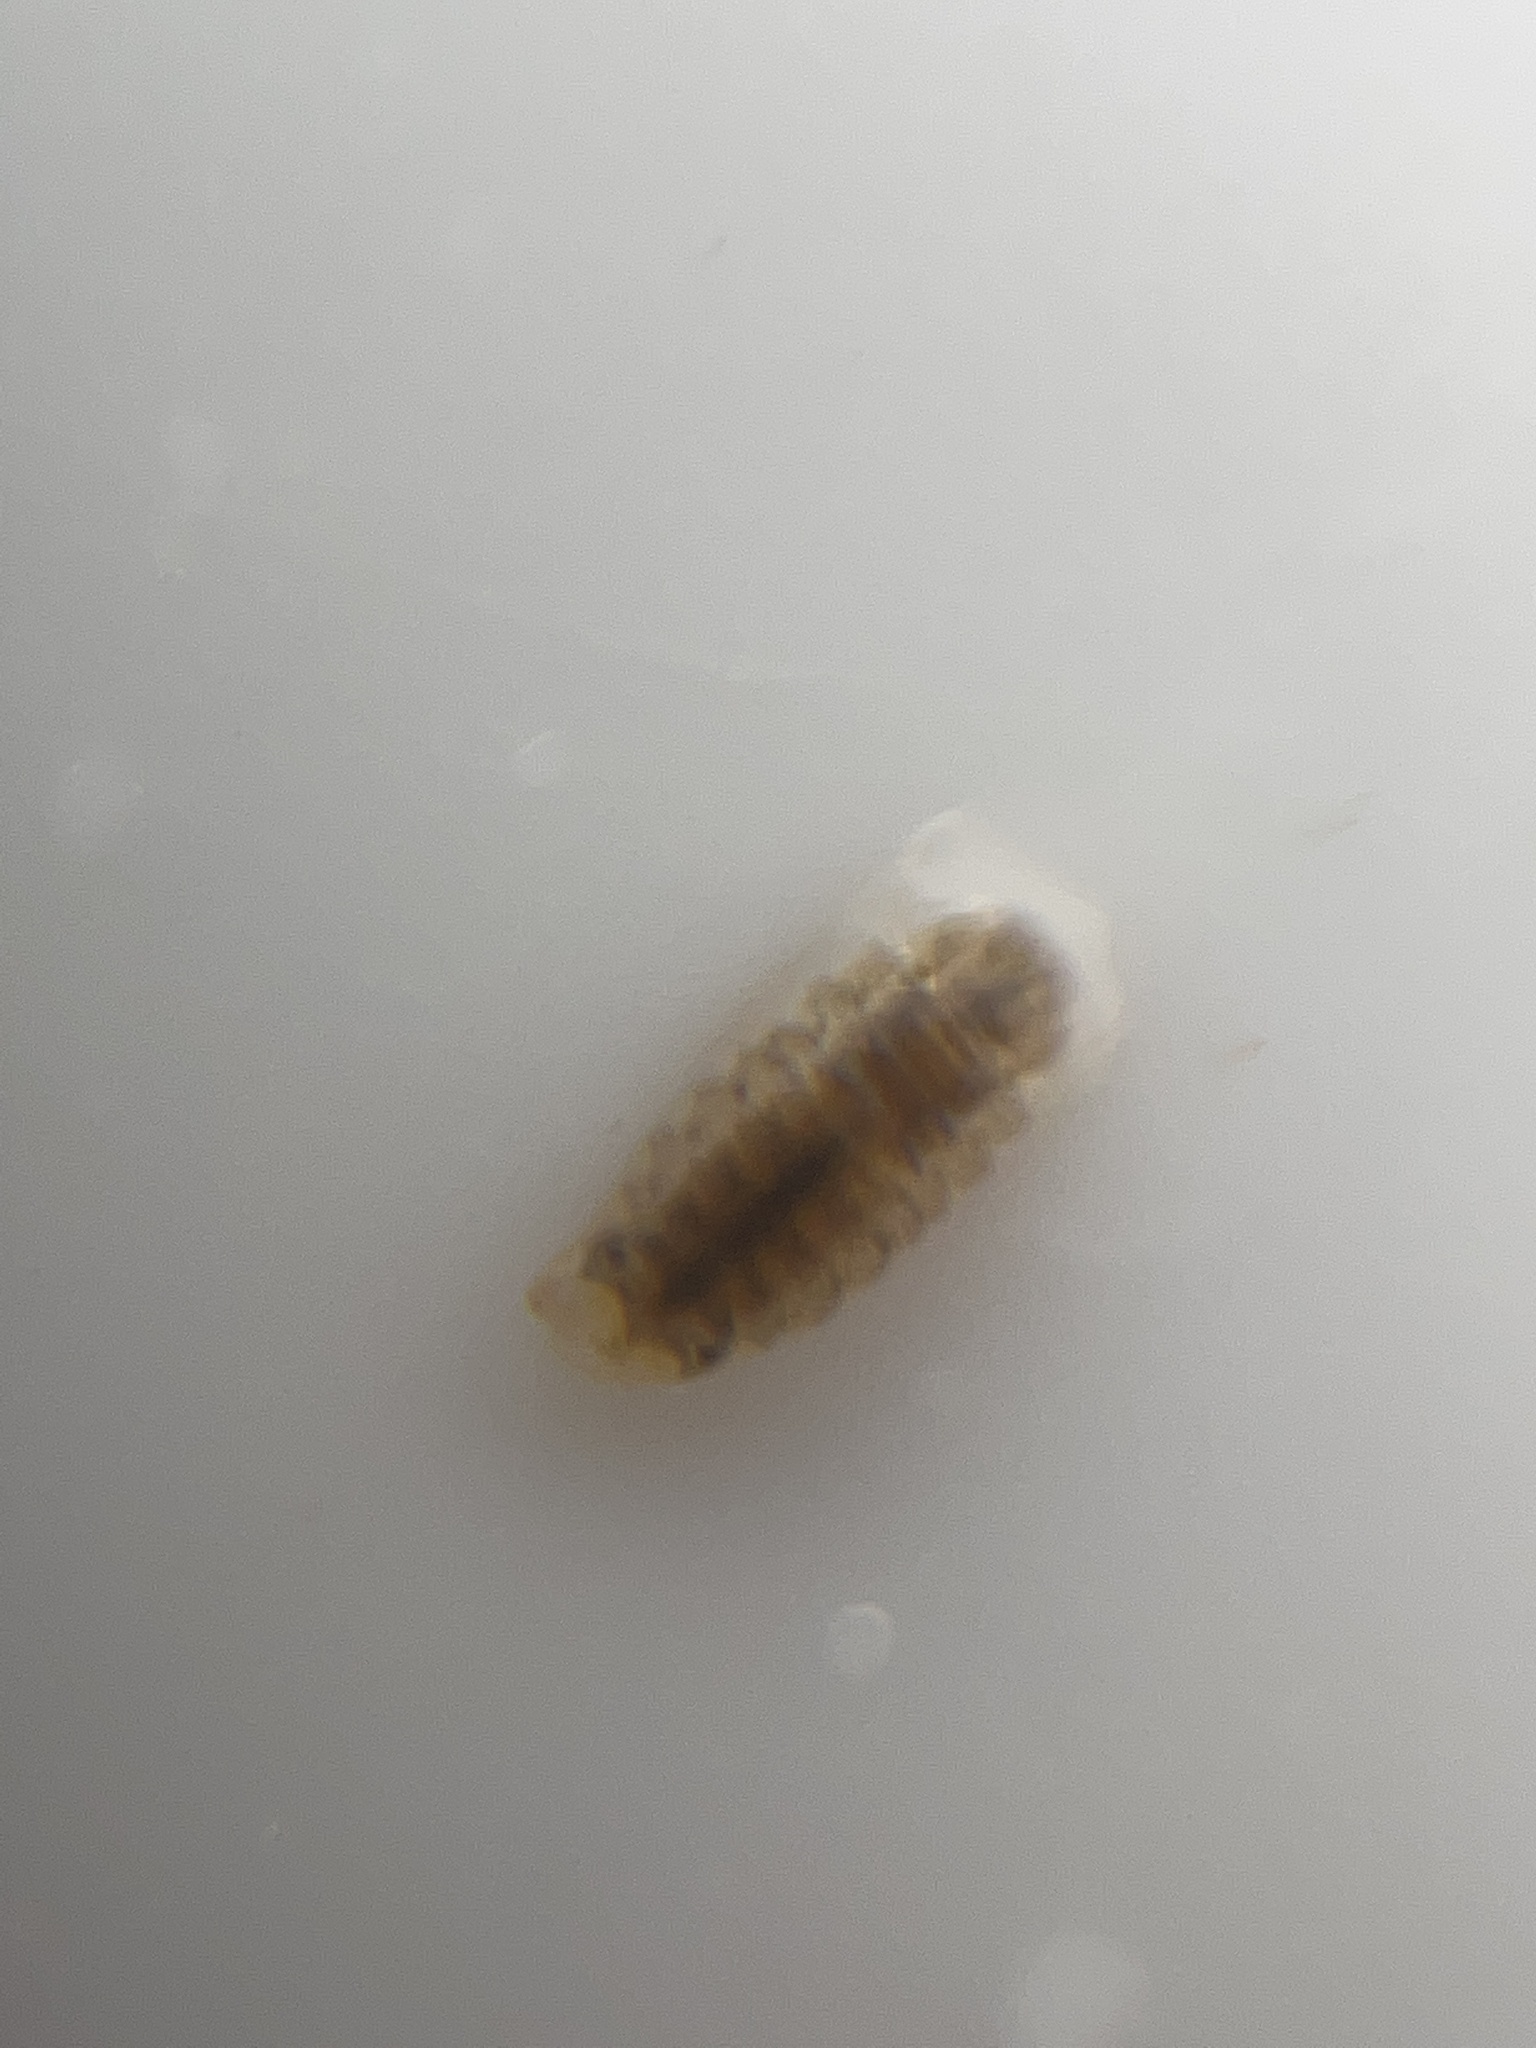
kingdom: Animalia
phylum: Arthropoda
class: Malacostraca
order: Isopoda
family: Janiridae
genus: Jaera
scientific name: Jaera
